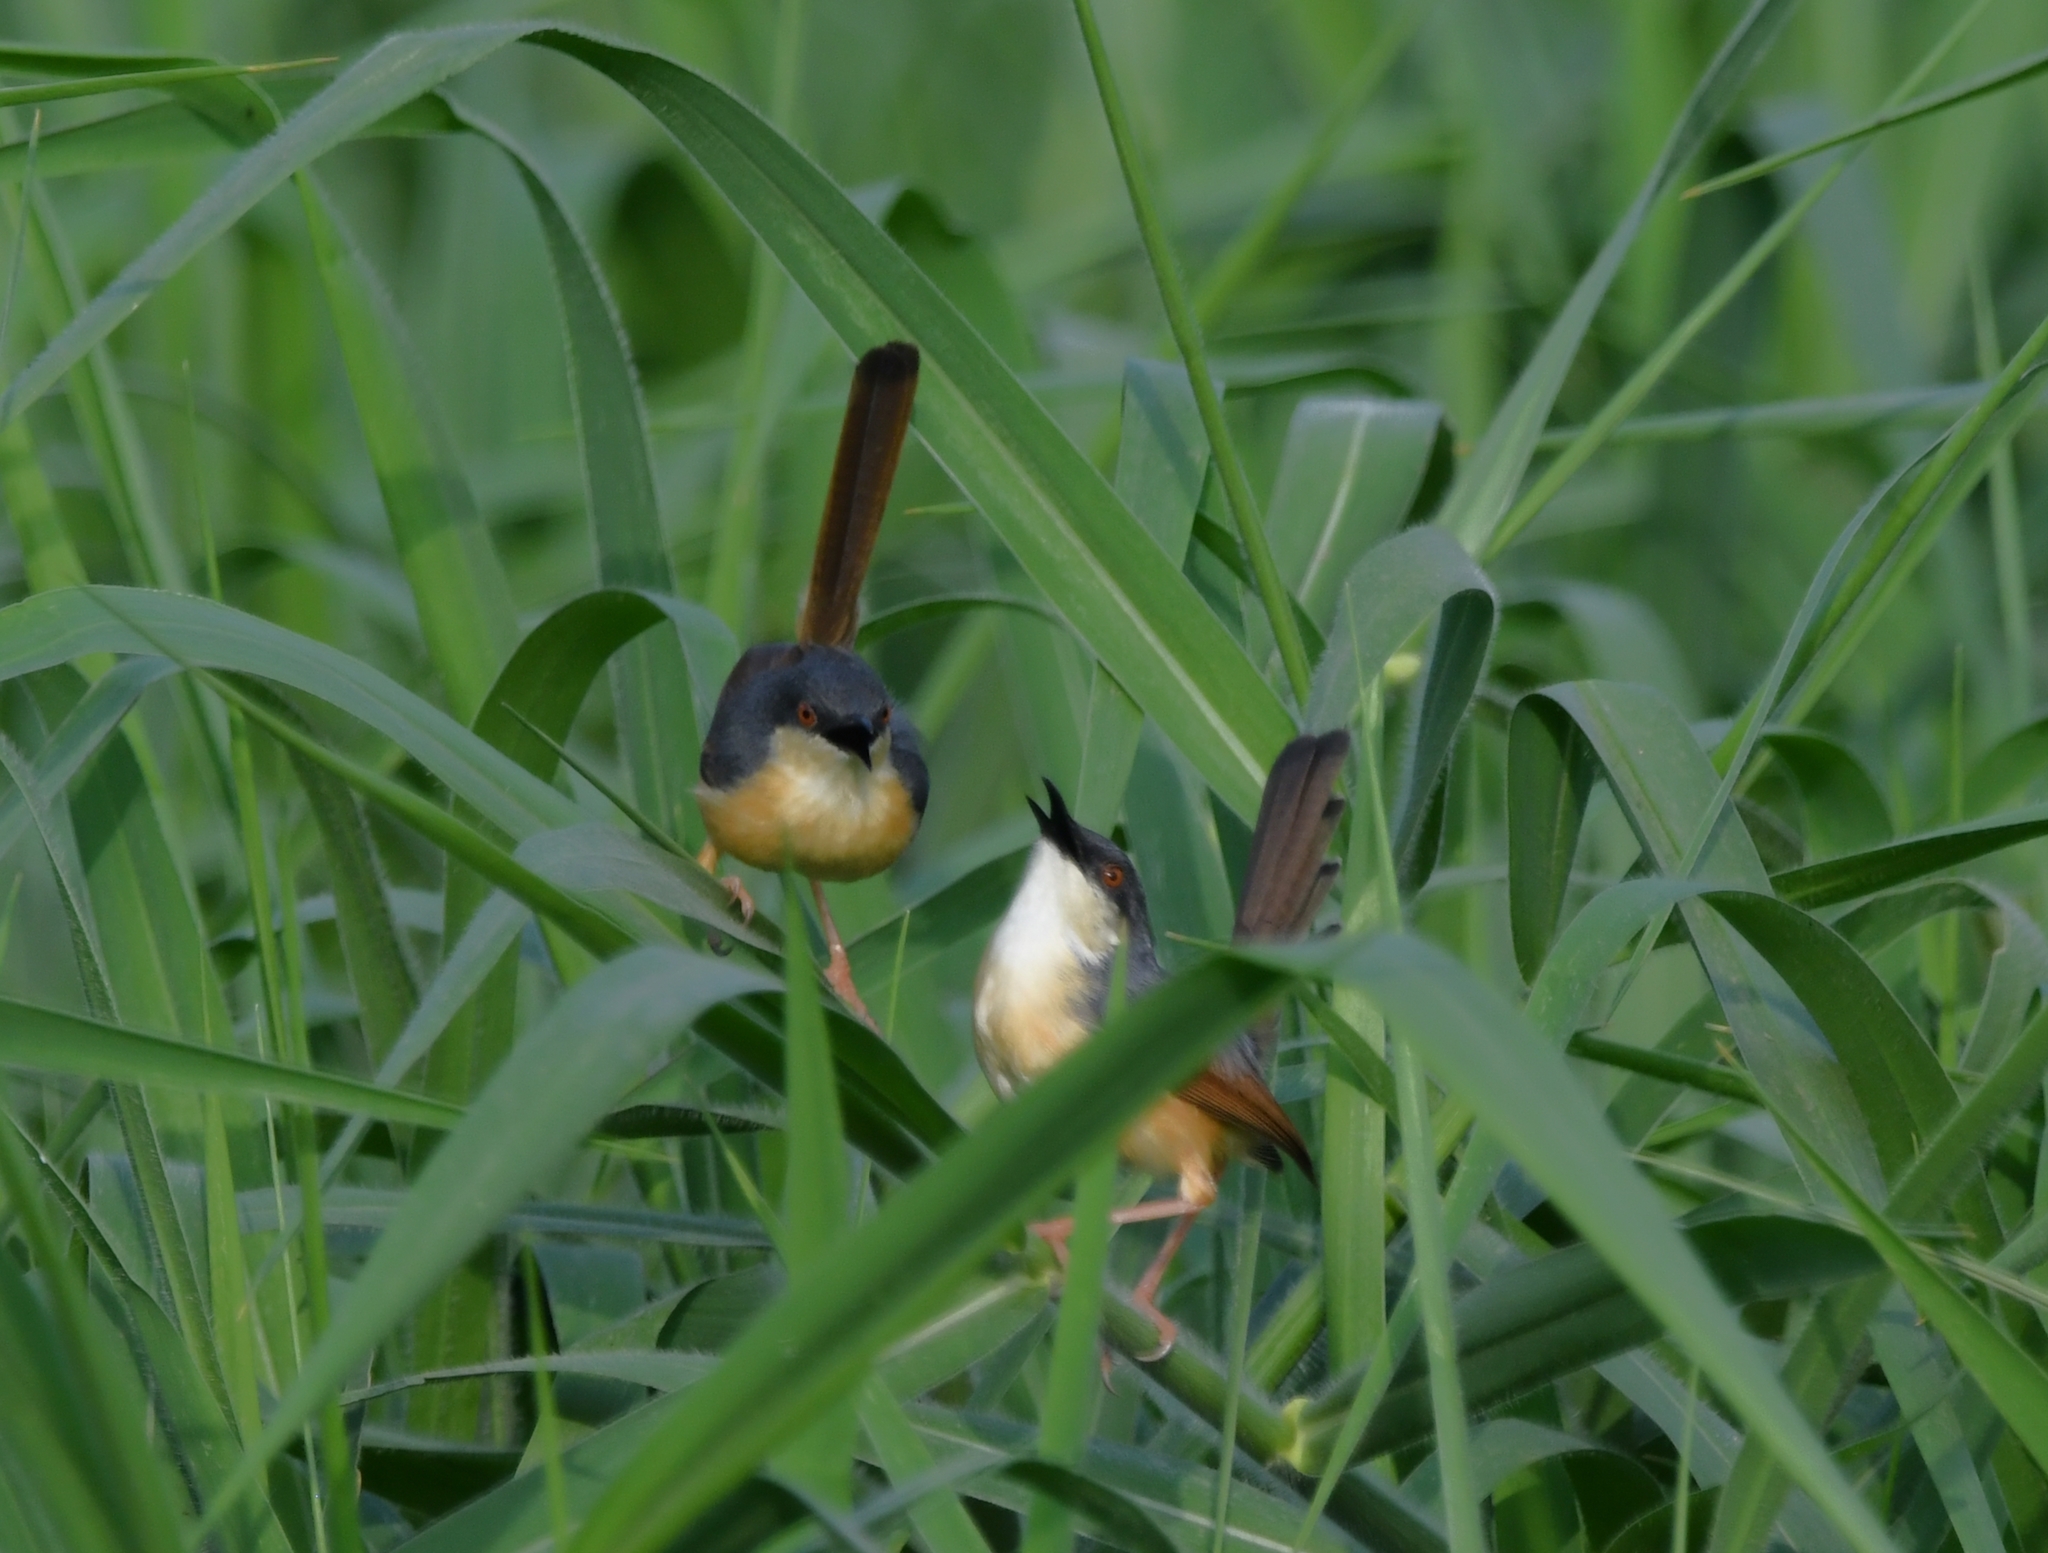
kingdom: Animalia
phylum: Chordata
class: Aves
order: Passeriformes
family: Cisticolidae
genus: Prinia
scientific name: Prinia socialis
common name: Ashy prinia
